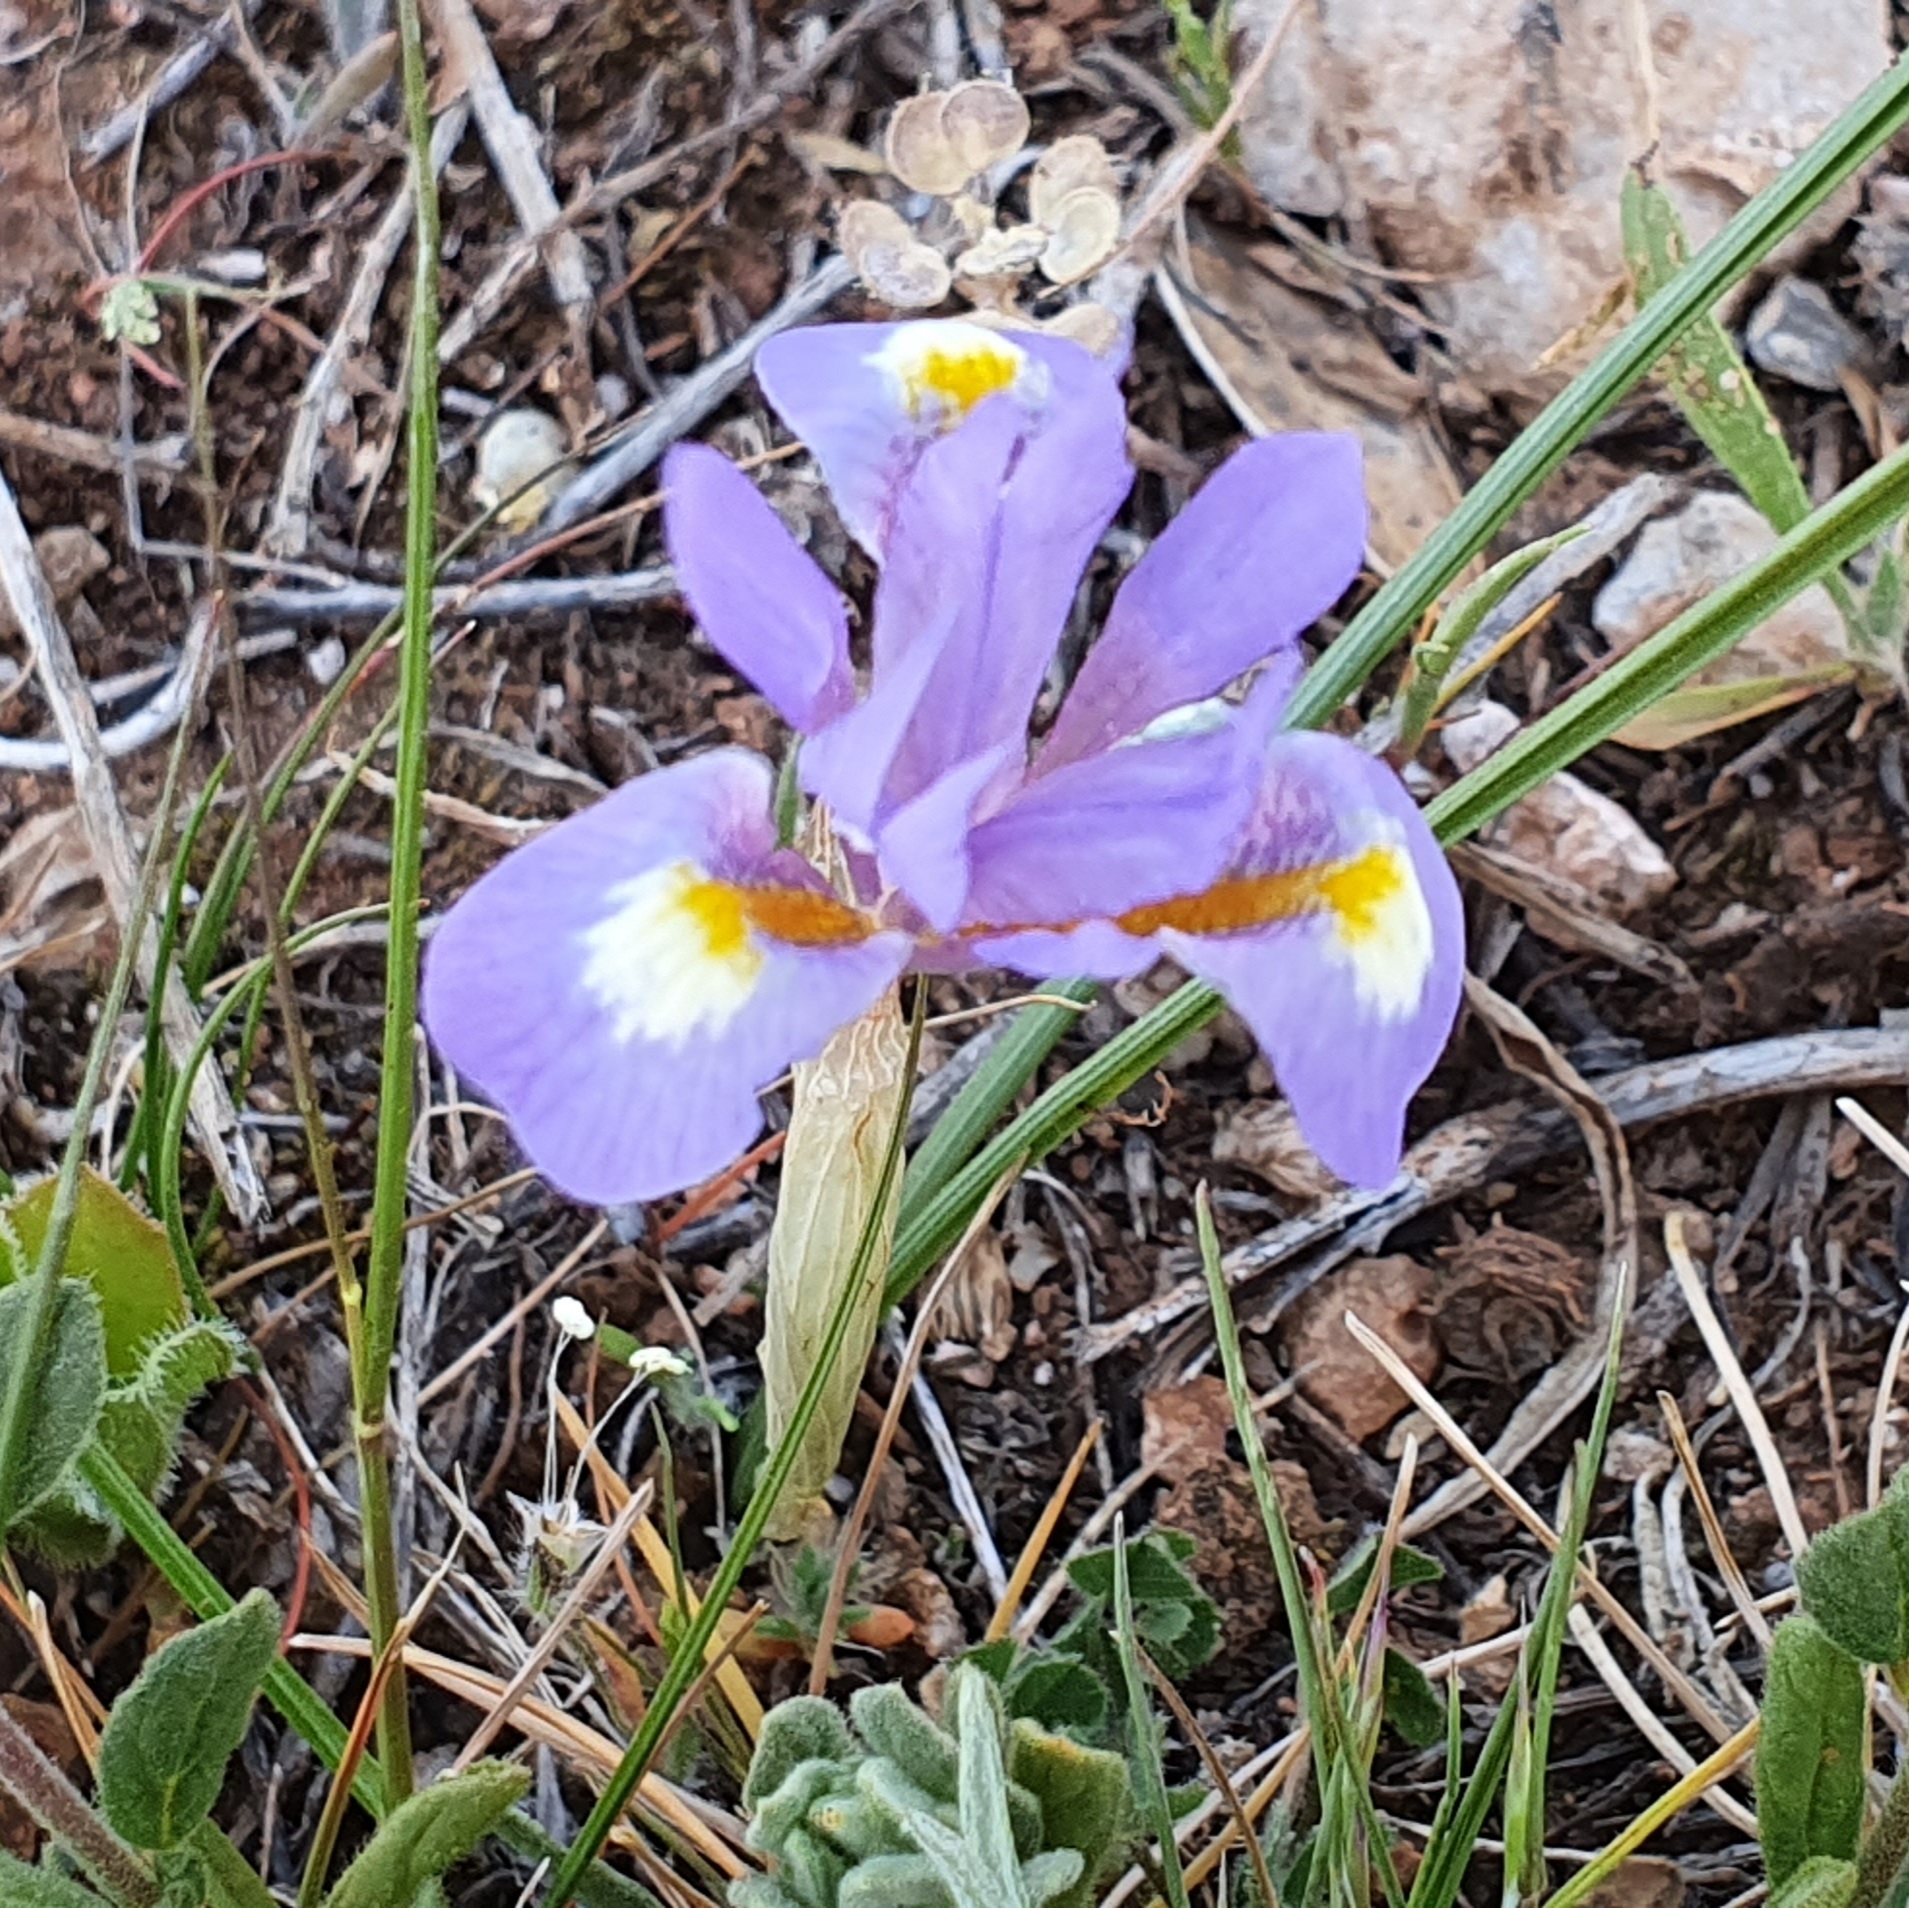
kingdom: Plantae
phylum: Tracheophyta
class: Liliopsida
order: Asparagales
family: Iridaceae
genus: Moraea
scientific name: Moraea sisyrinchium
